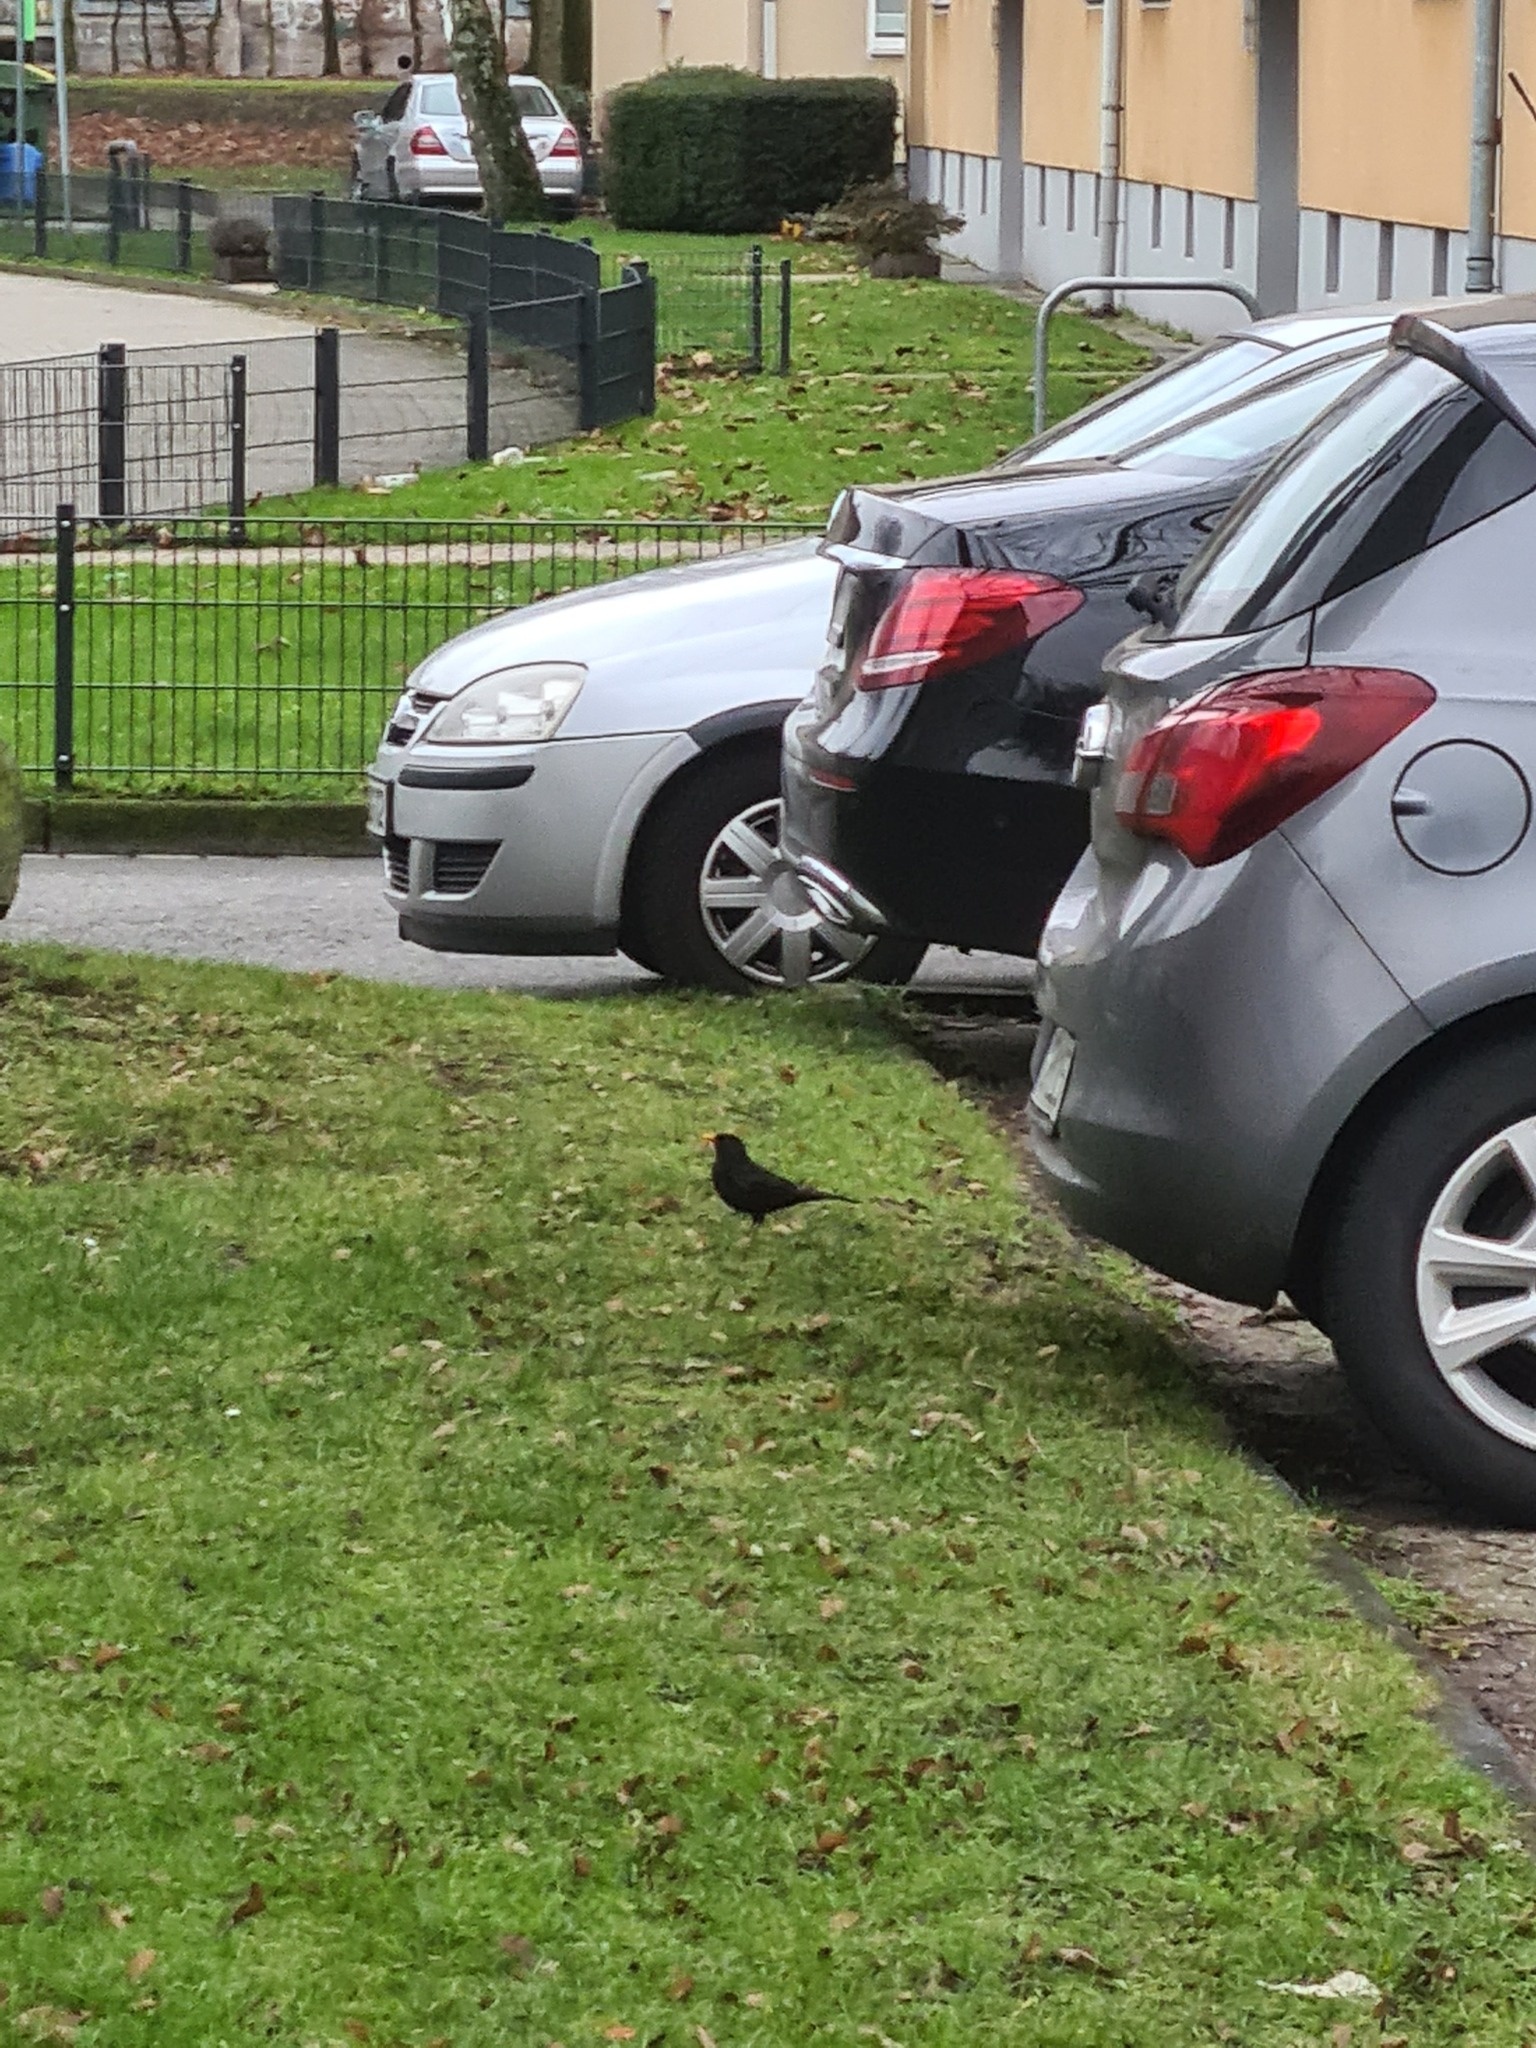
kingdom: Animalia
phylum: Chordata
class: Aves
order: Passeriformes
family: Turdidae
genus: Turdus
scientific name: Turdus merula
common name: Common blackbird
